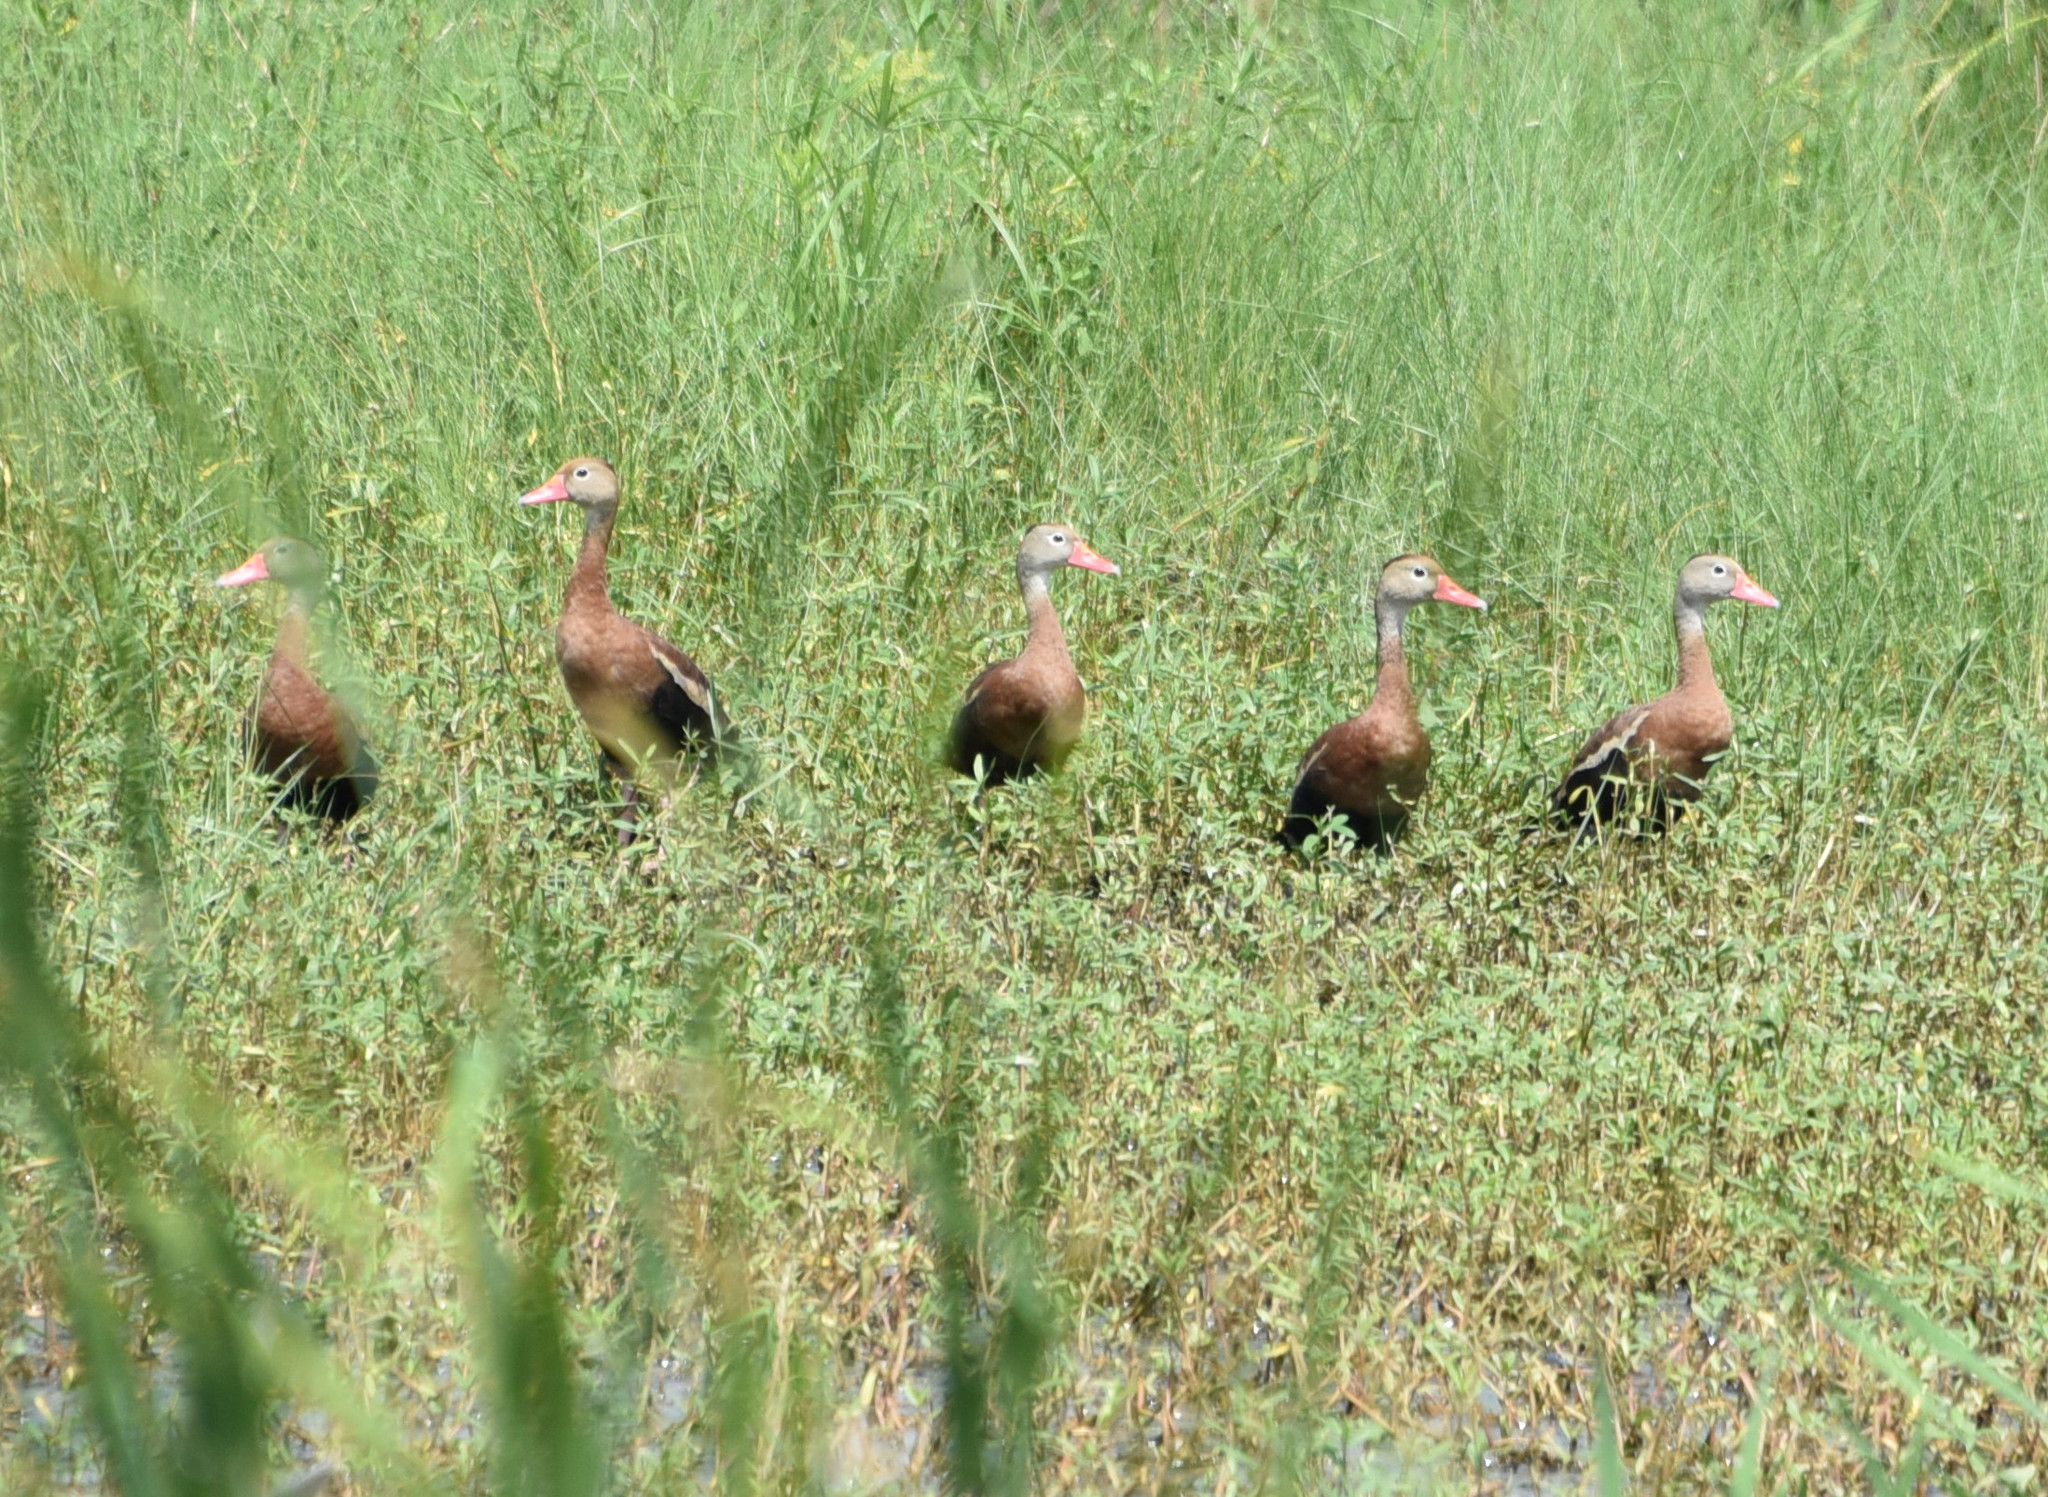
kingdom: Animalia
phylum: Chordata
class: Aves
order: Anseriformes
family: Anatidae
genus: Dendrocygna
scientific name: Dendrocygna autumnalis
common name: Black-bellied whistling duck
